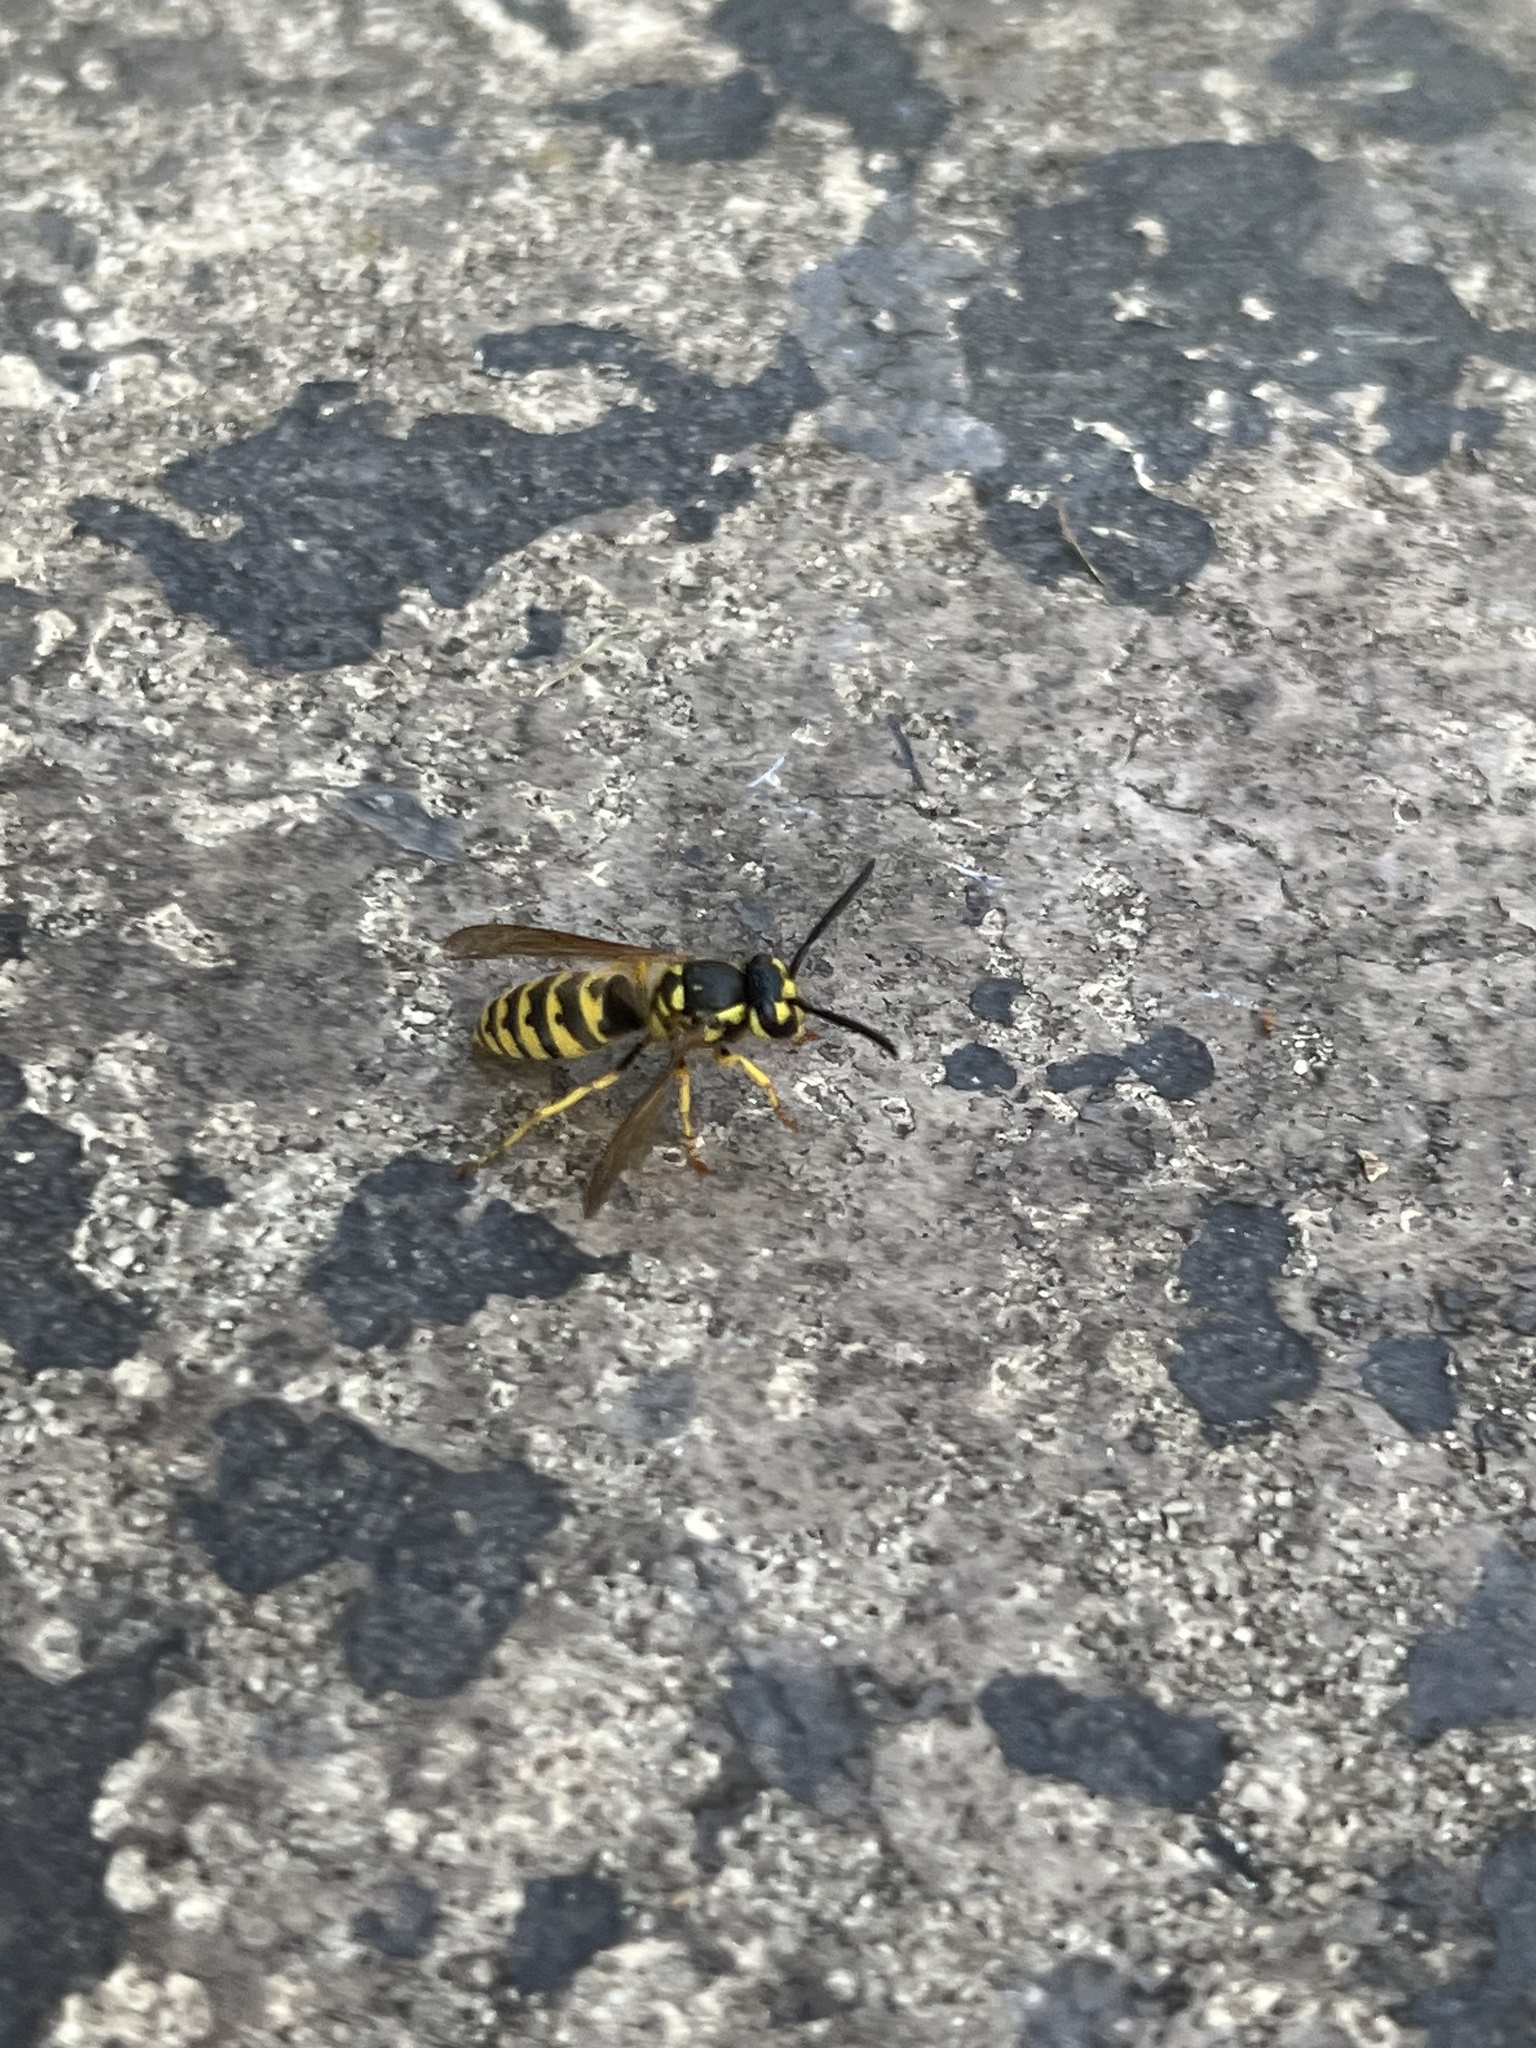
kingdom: Animalia
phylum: Arthropoda
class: Insecta
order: Hymenoptera
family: Vespidae
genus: Vespula
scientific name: Vespula flavopilosa
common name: Downy yellowjacket
